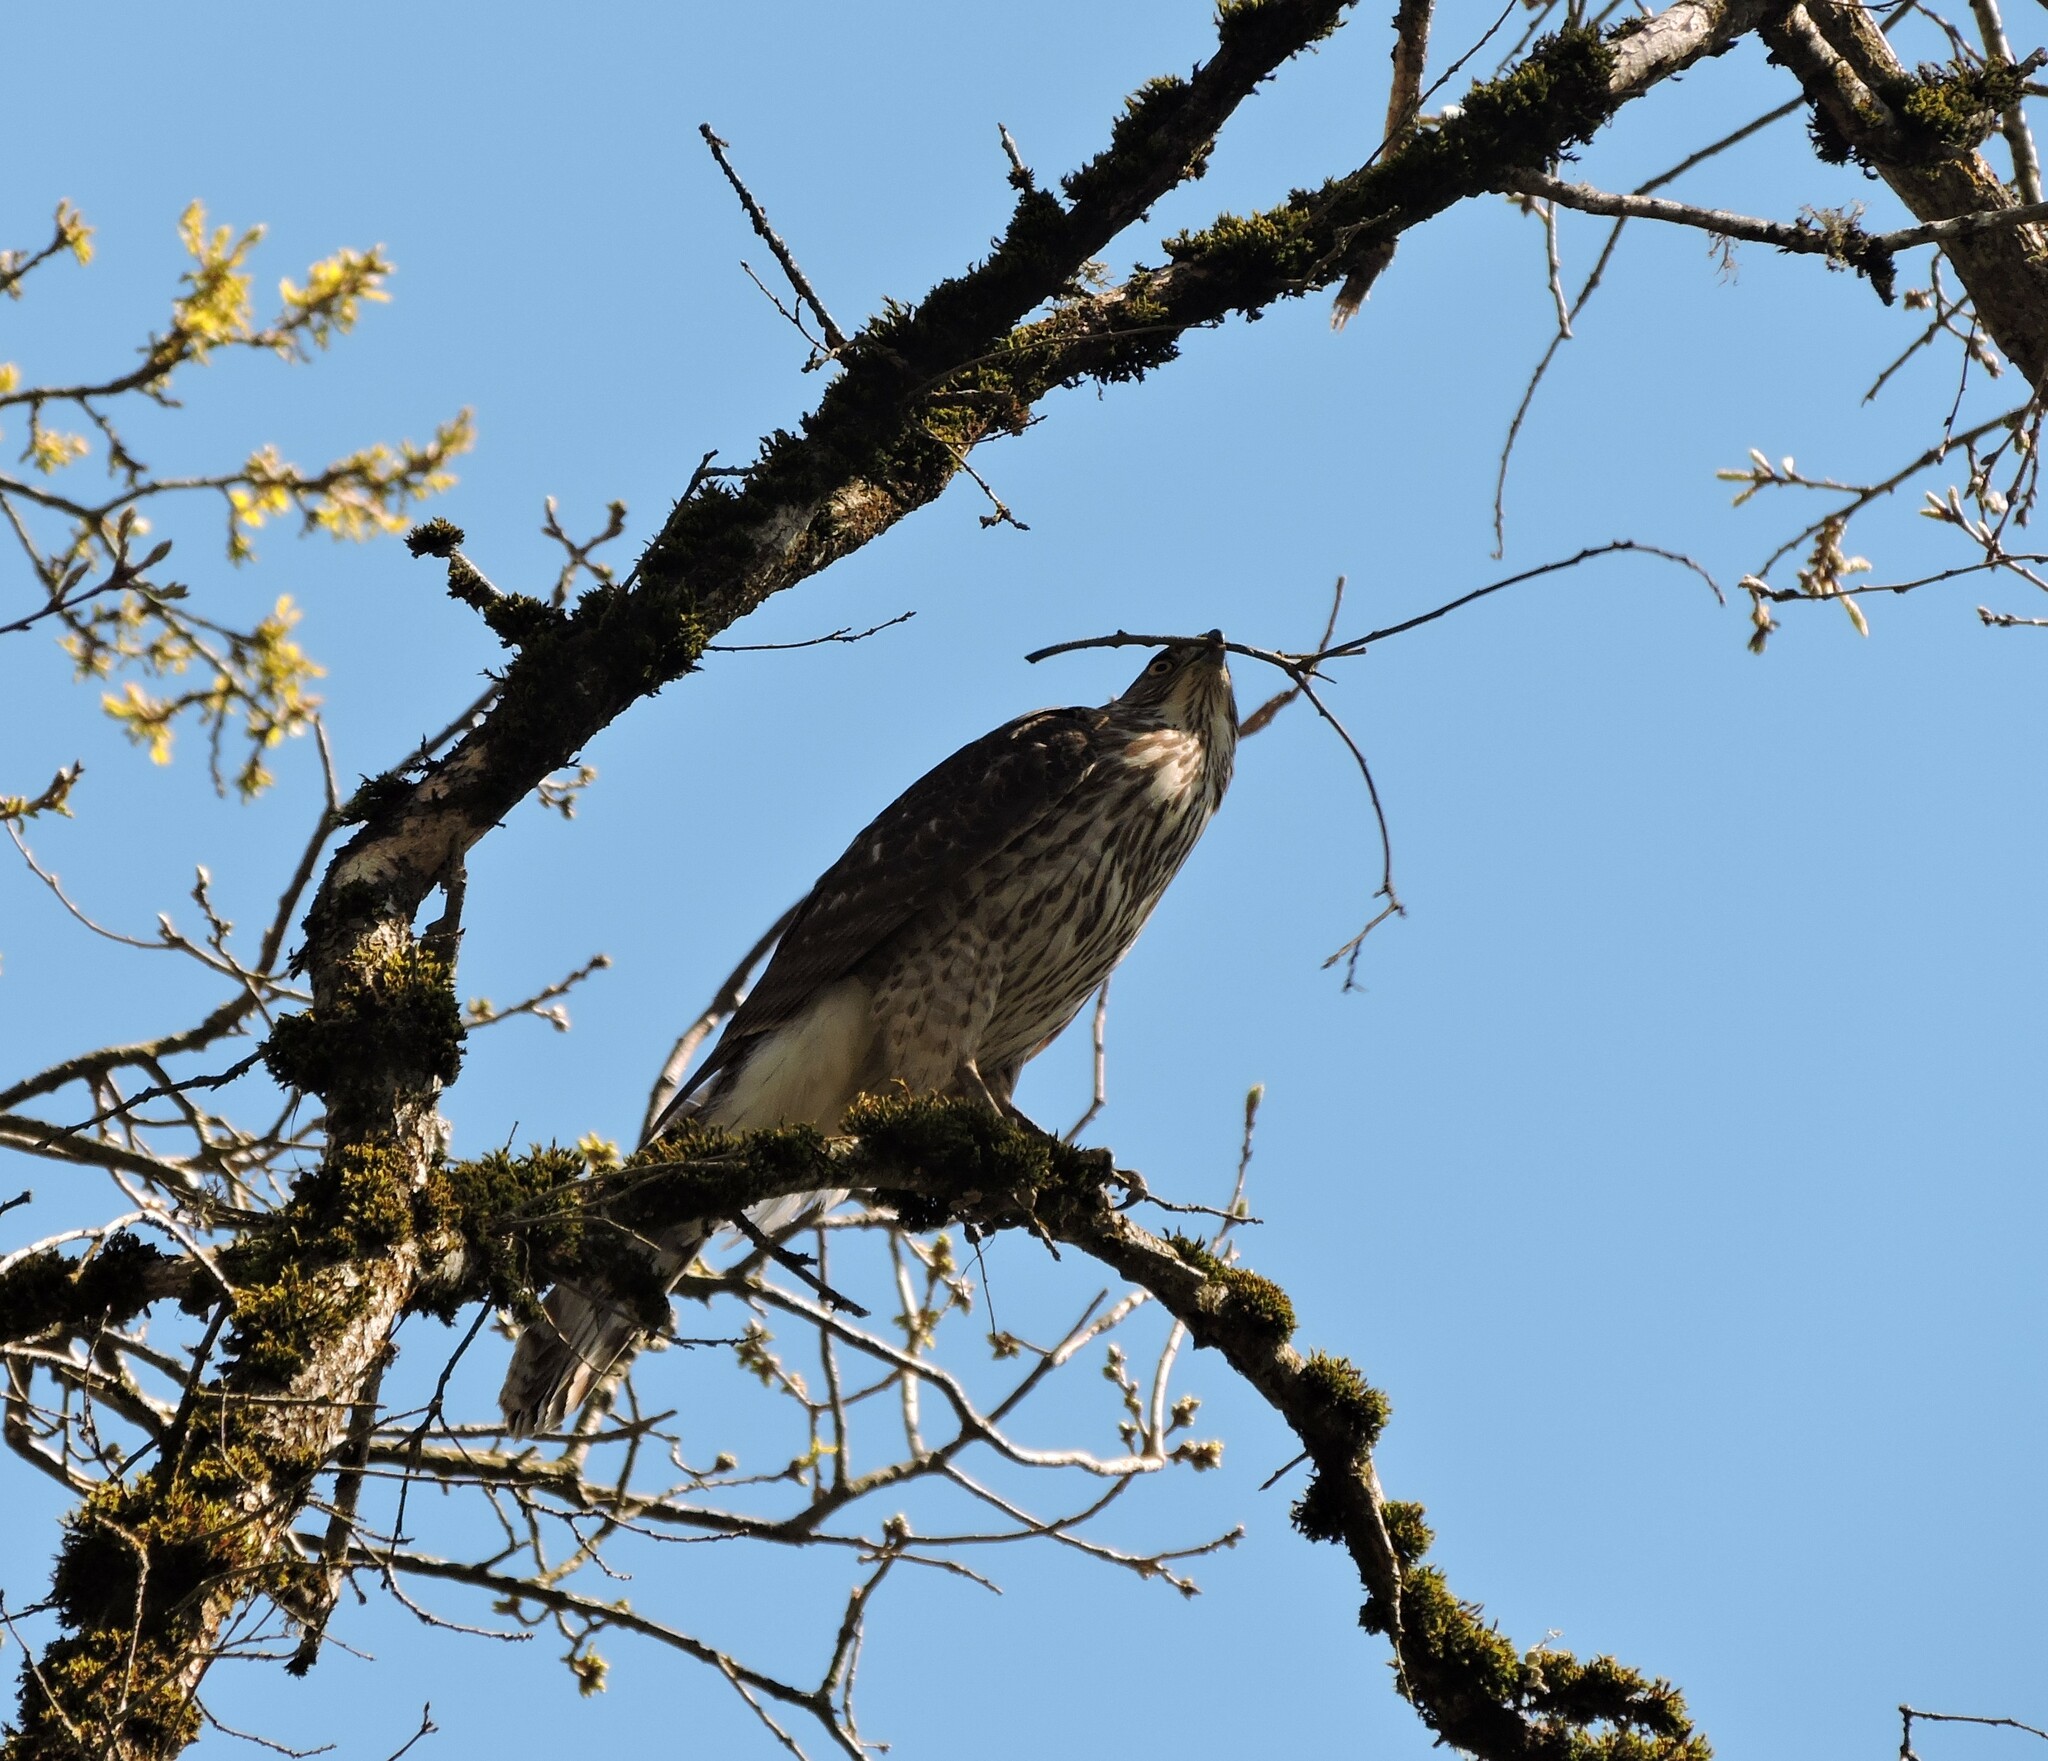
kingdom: Animalia
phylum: Chordata
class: Aves
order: Accipitriformes
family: Accipitridae
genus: Accipiter
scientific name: Accipiter cooperii
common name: Cooper's hawk
